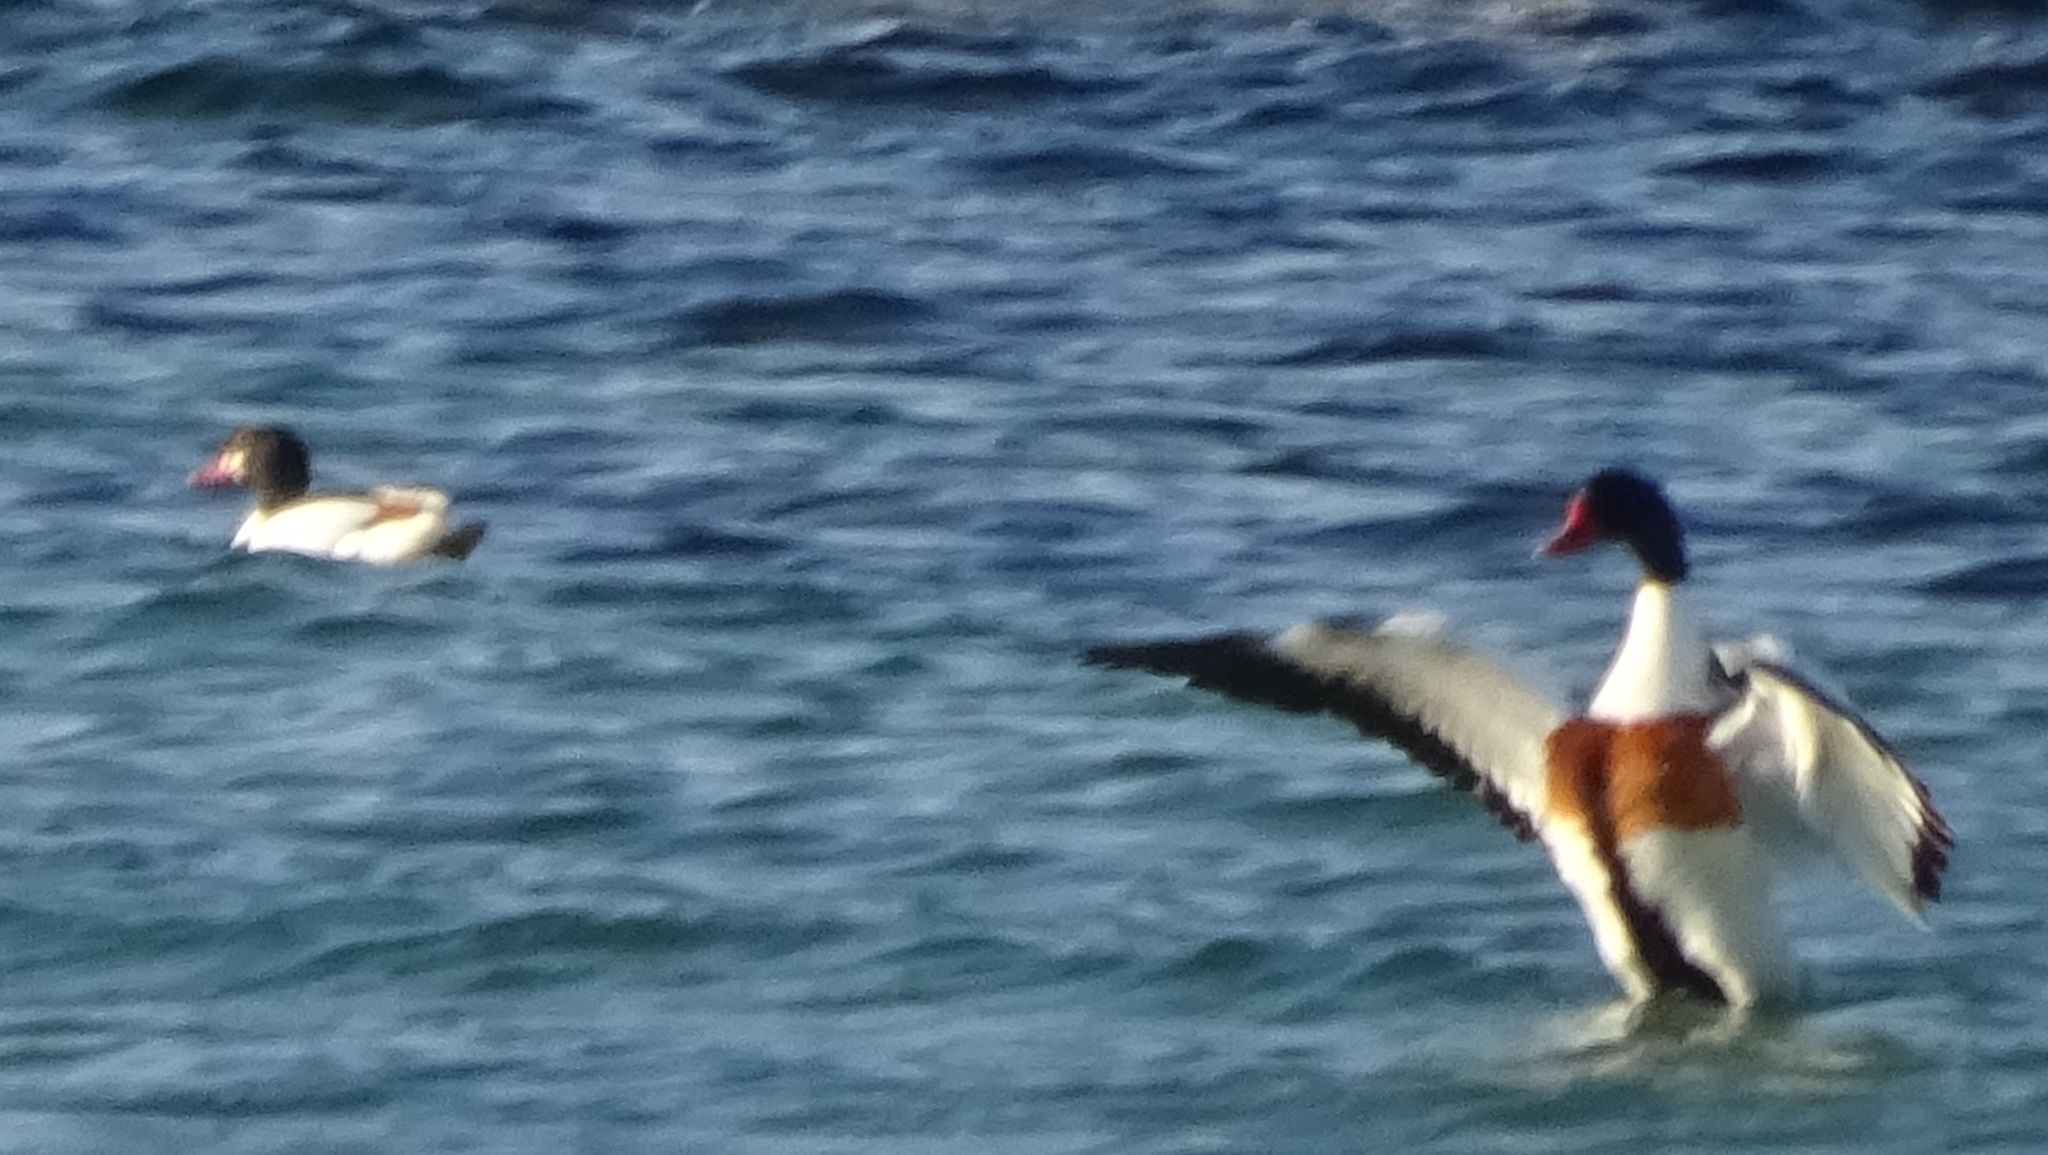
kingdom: Animalia
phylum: Chordata
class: Aves
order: Anseriformes
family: Anatidae
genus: Tadorna
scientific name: Tadorna tadorna
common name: Common shelduck
